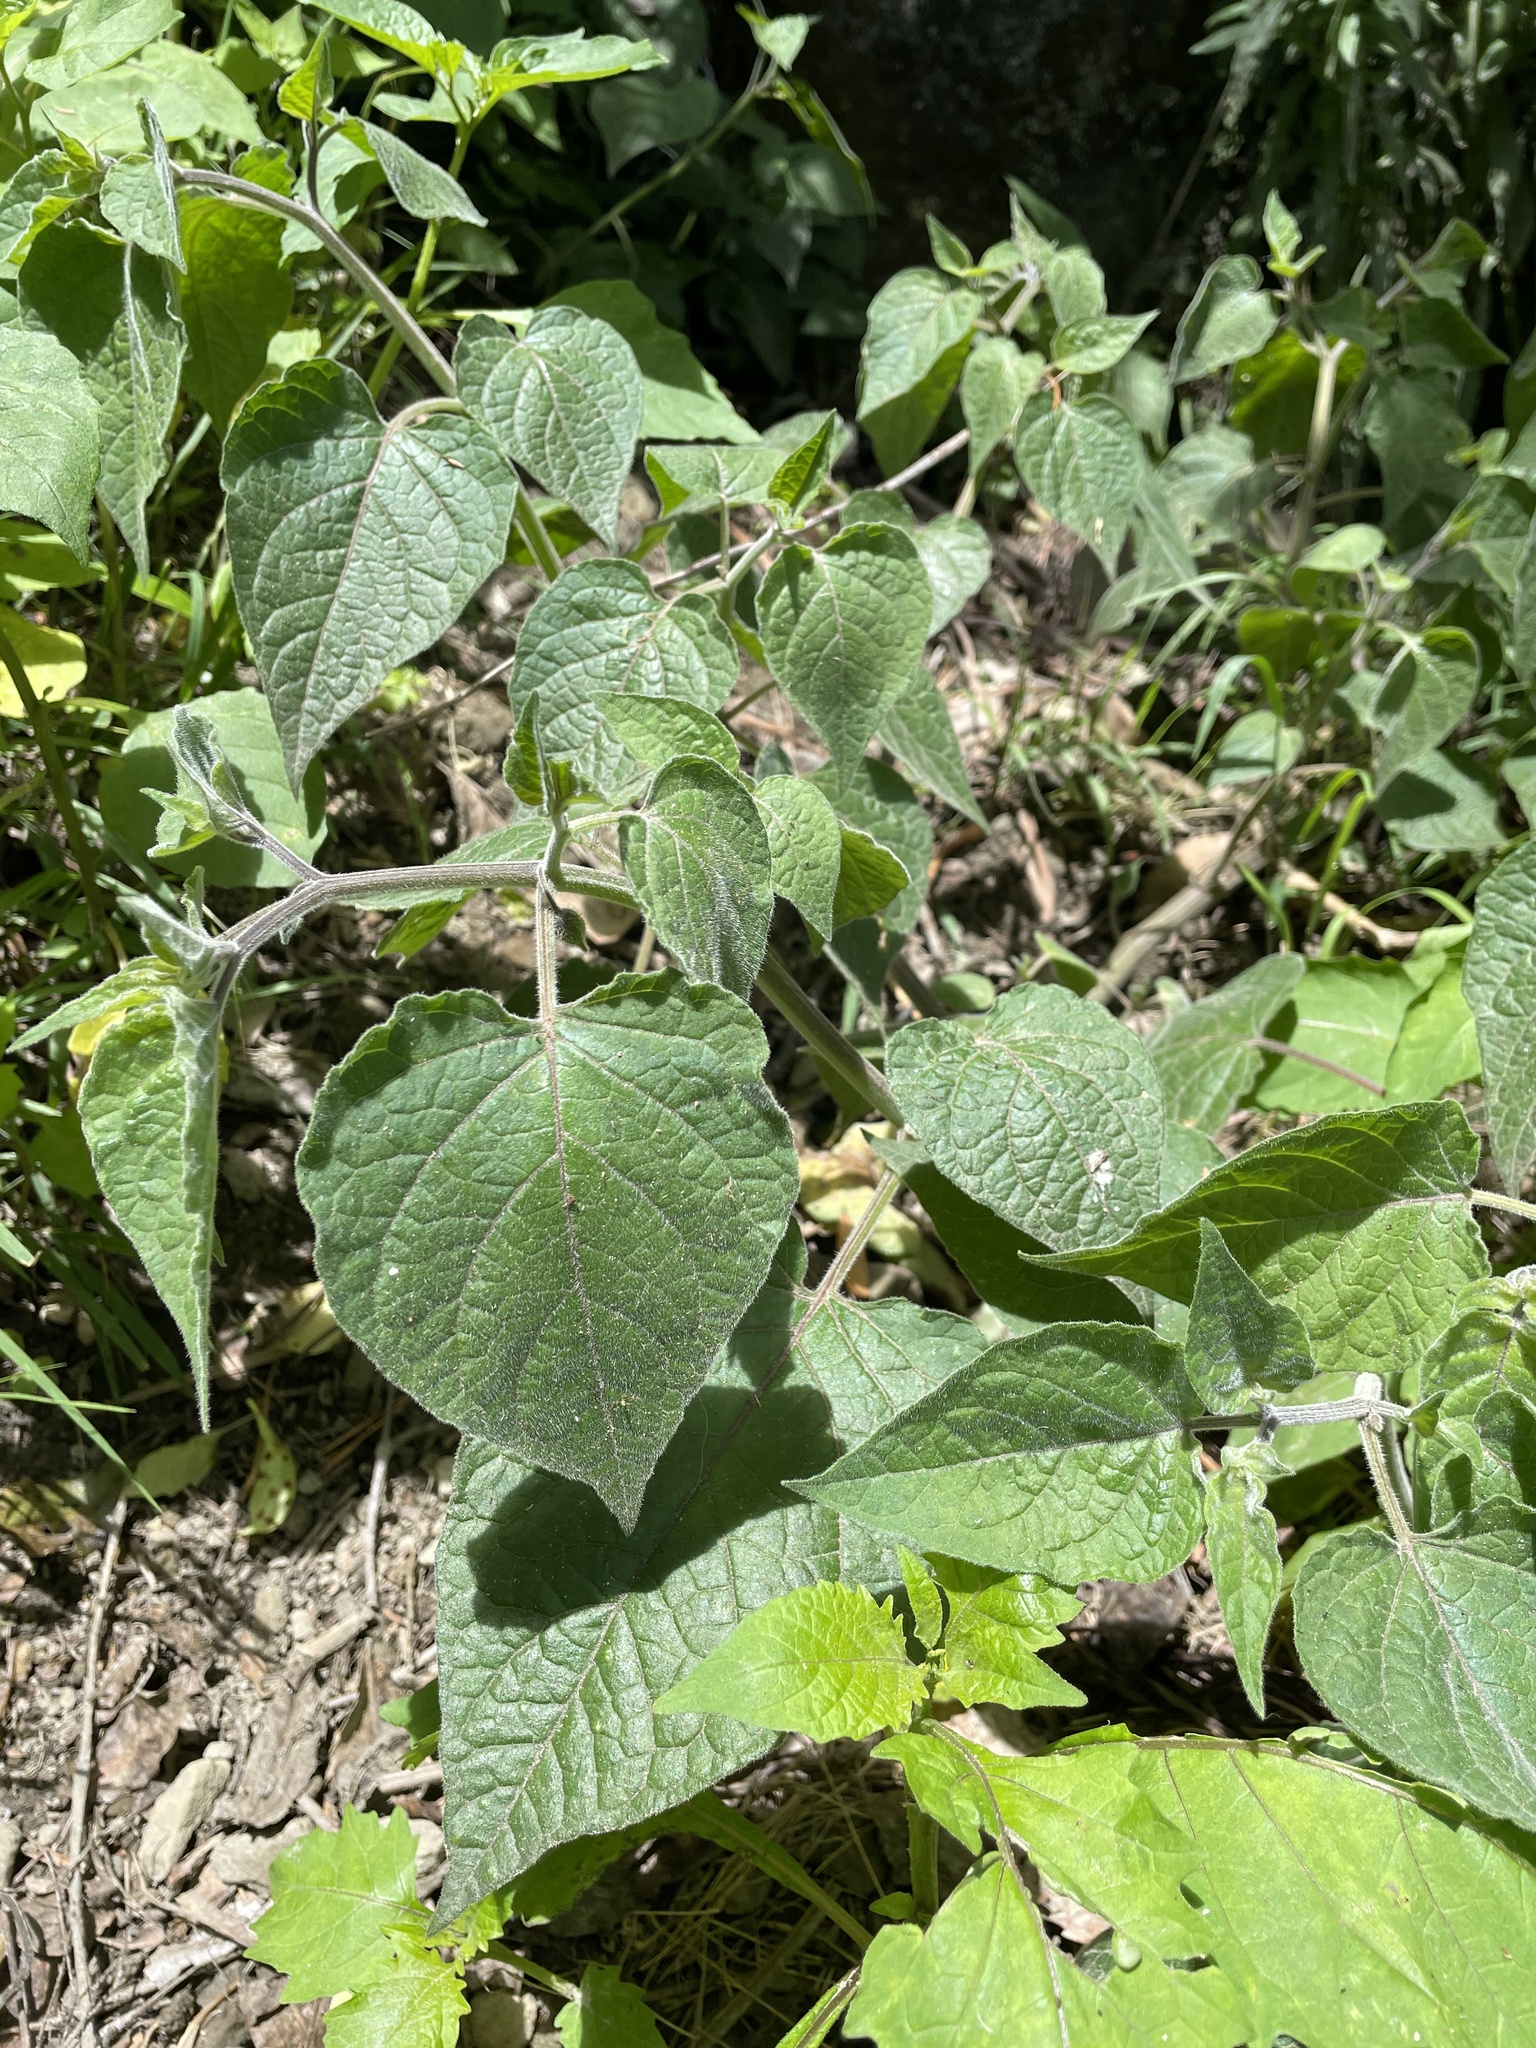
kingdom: Plantae
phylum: Tracheophyta
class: Magnoliopsida
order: Solanales
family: Solanaceae
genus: Physalis
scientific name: Physalis peruviana
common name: Cape-gooseberry
